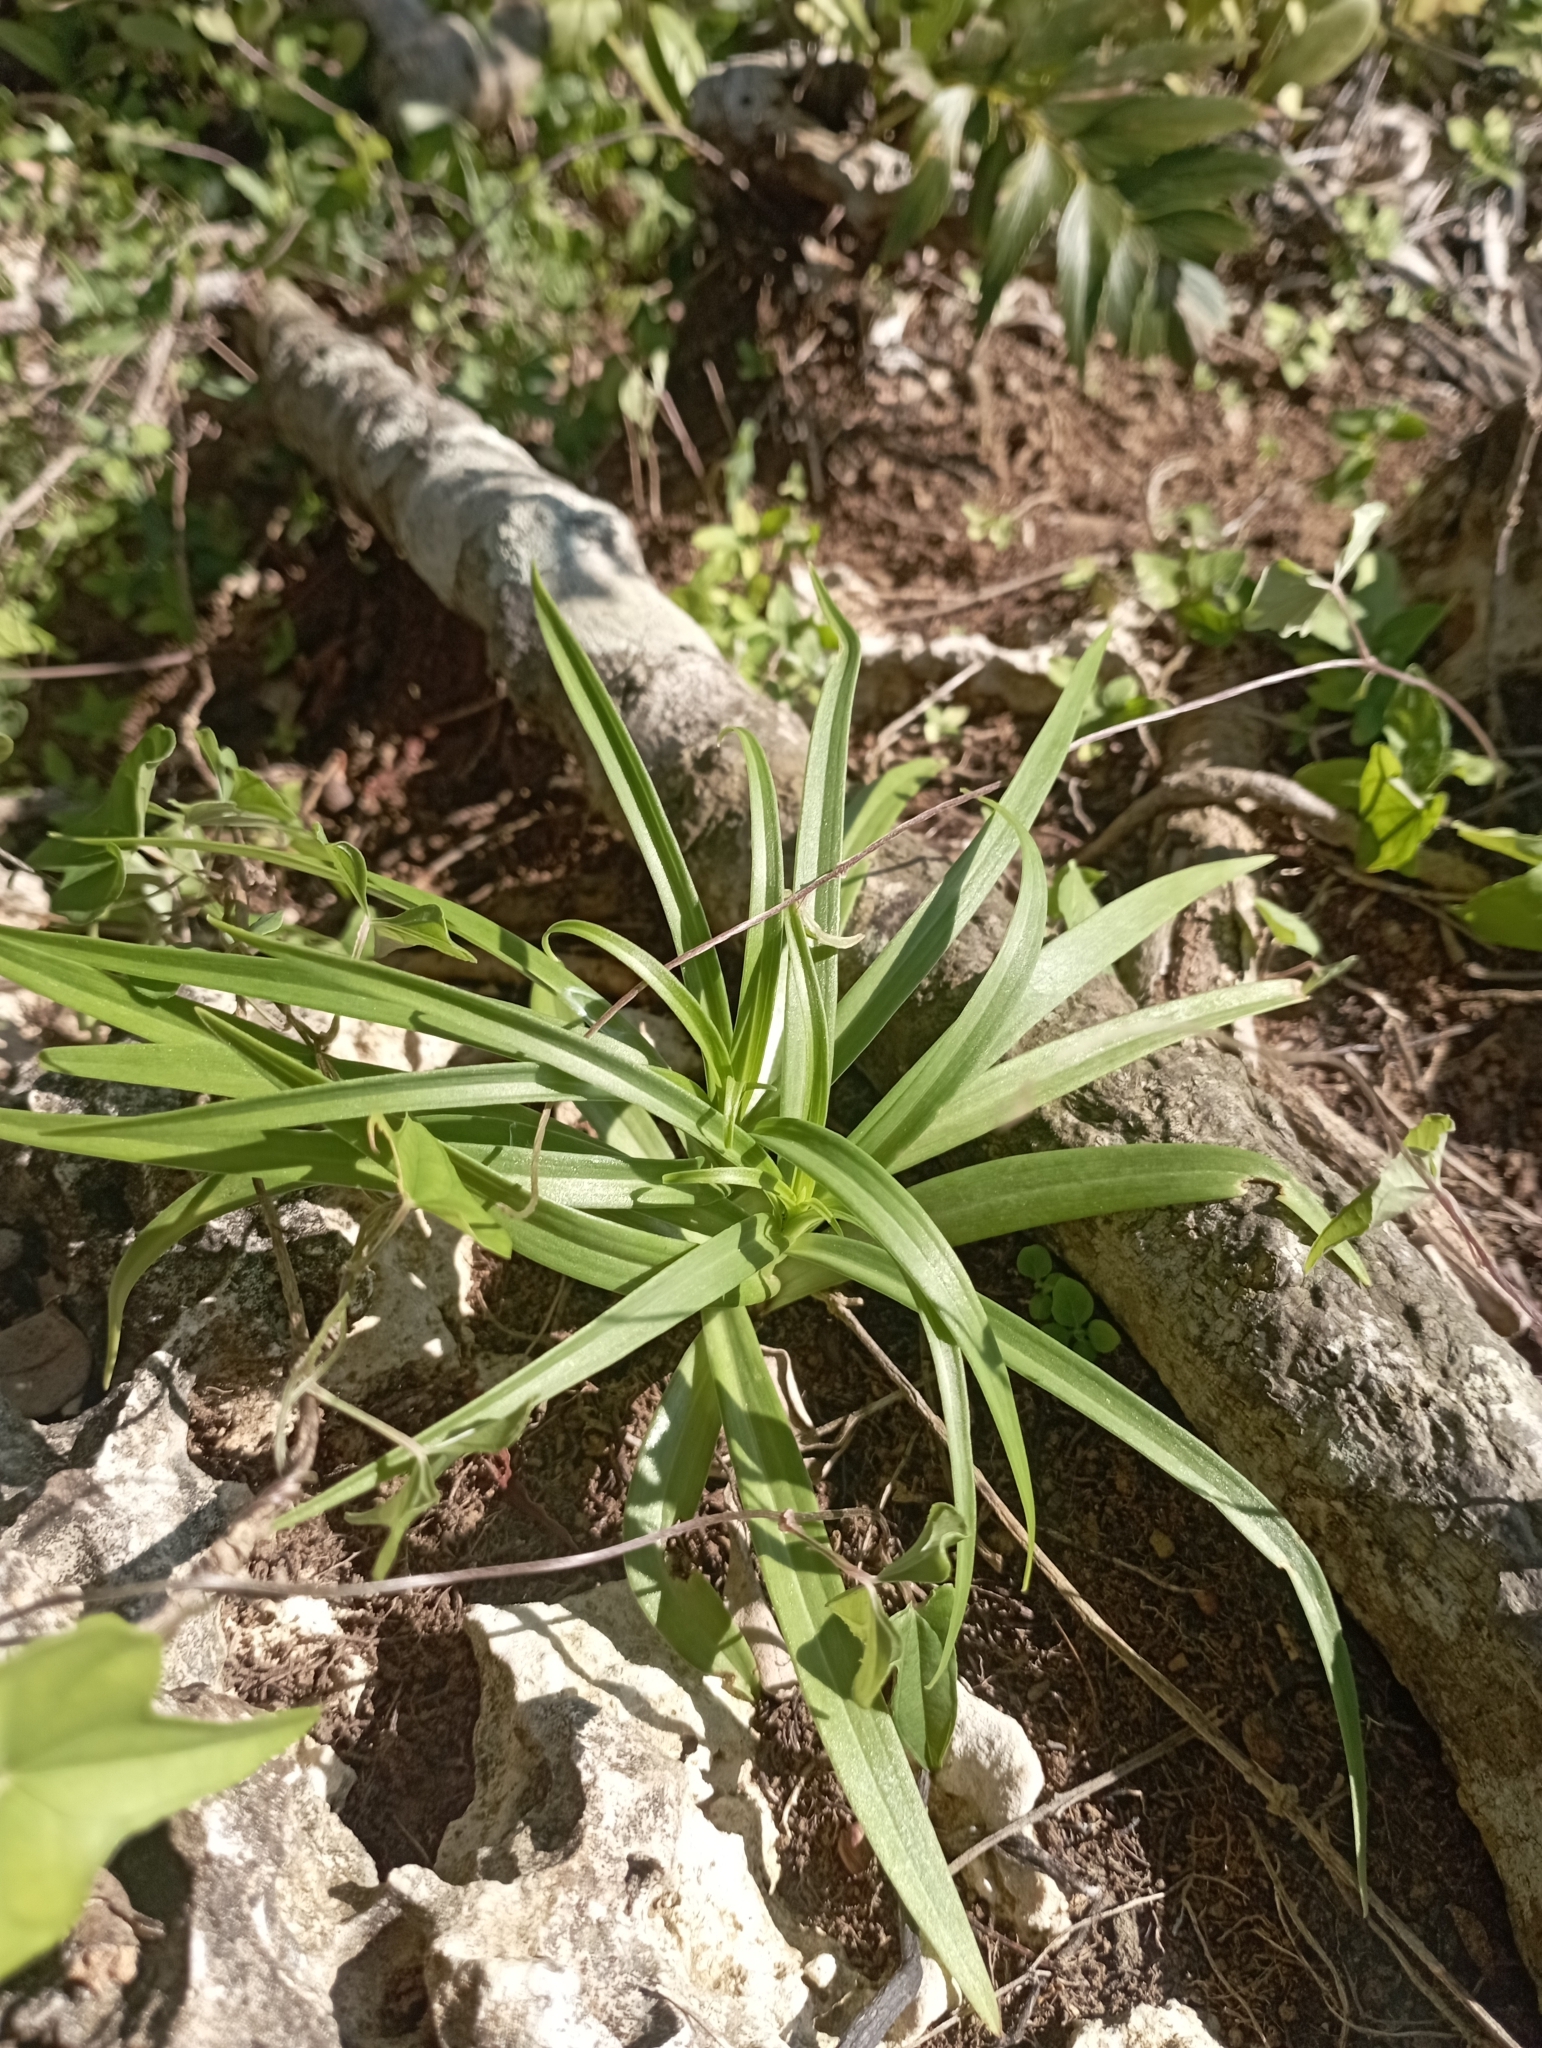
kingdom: Plantae
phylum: Tracheophyta
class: Liliopsida
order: Liliales
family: Liliaceae
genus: Lilium
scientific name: Lilium formosanum
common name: Formosa lily
